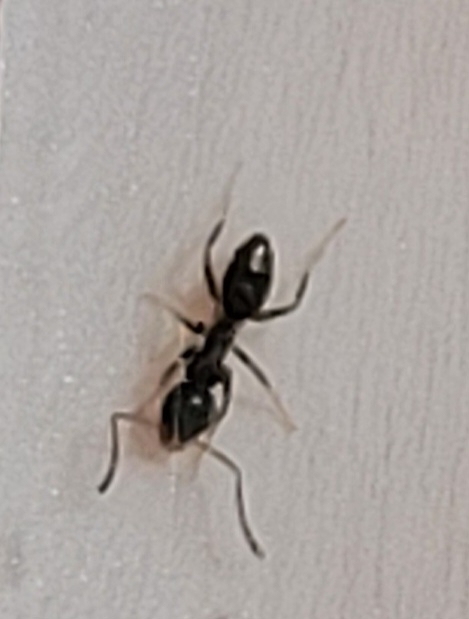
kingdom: Animalia
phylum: Arthropoda
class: Insecta
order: Hymenoptera
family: Formicidae
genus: Tapinoma
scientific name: Tapinoma sessile
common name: Odorous house ant
